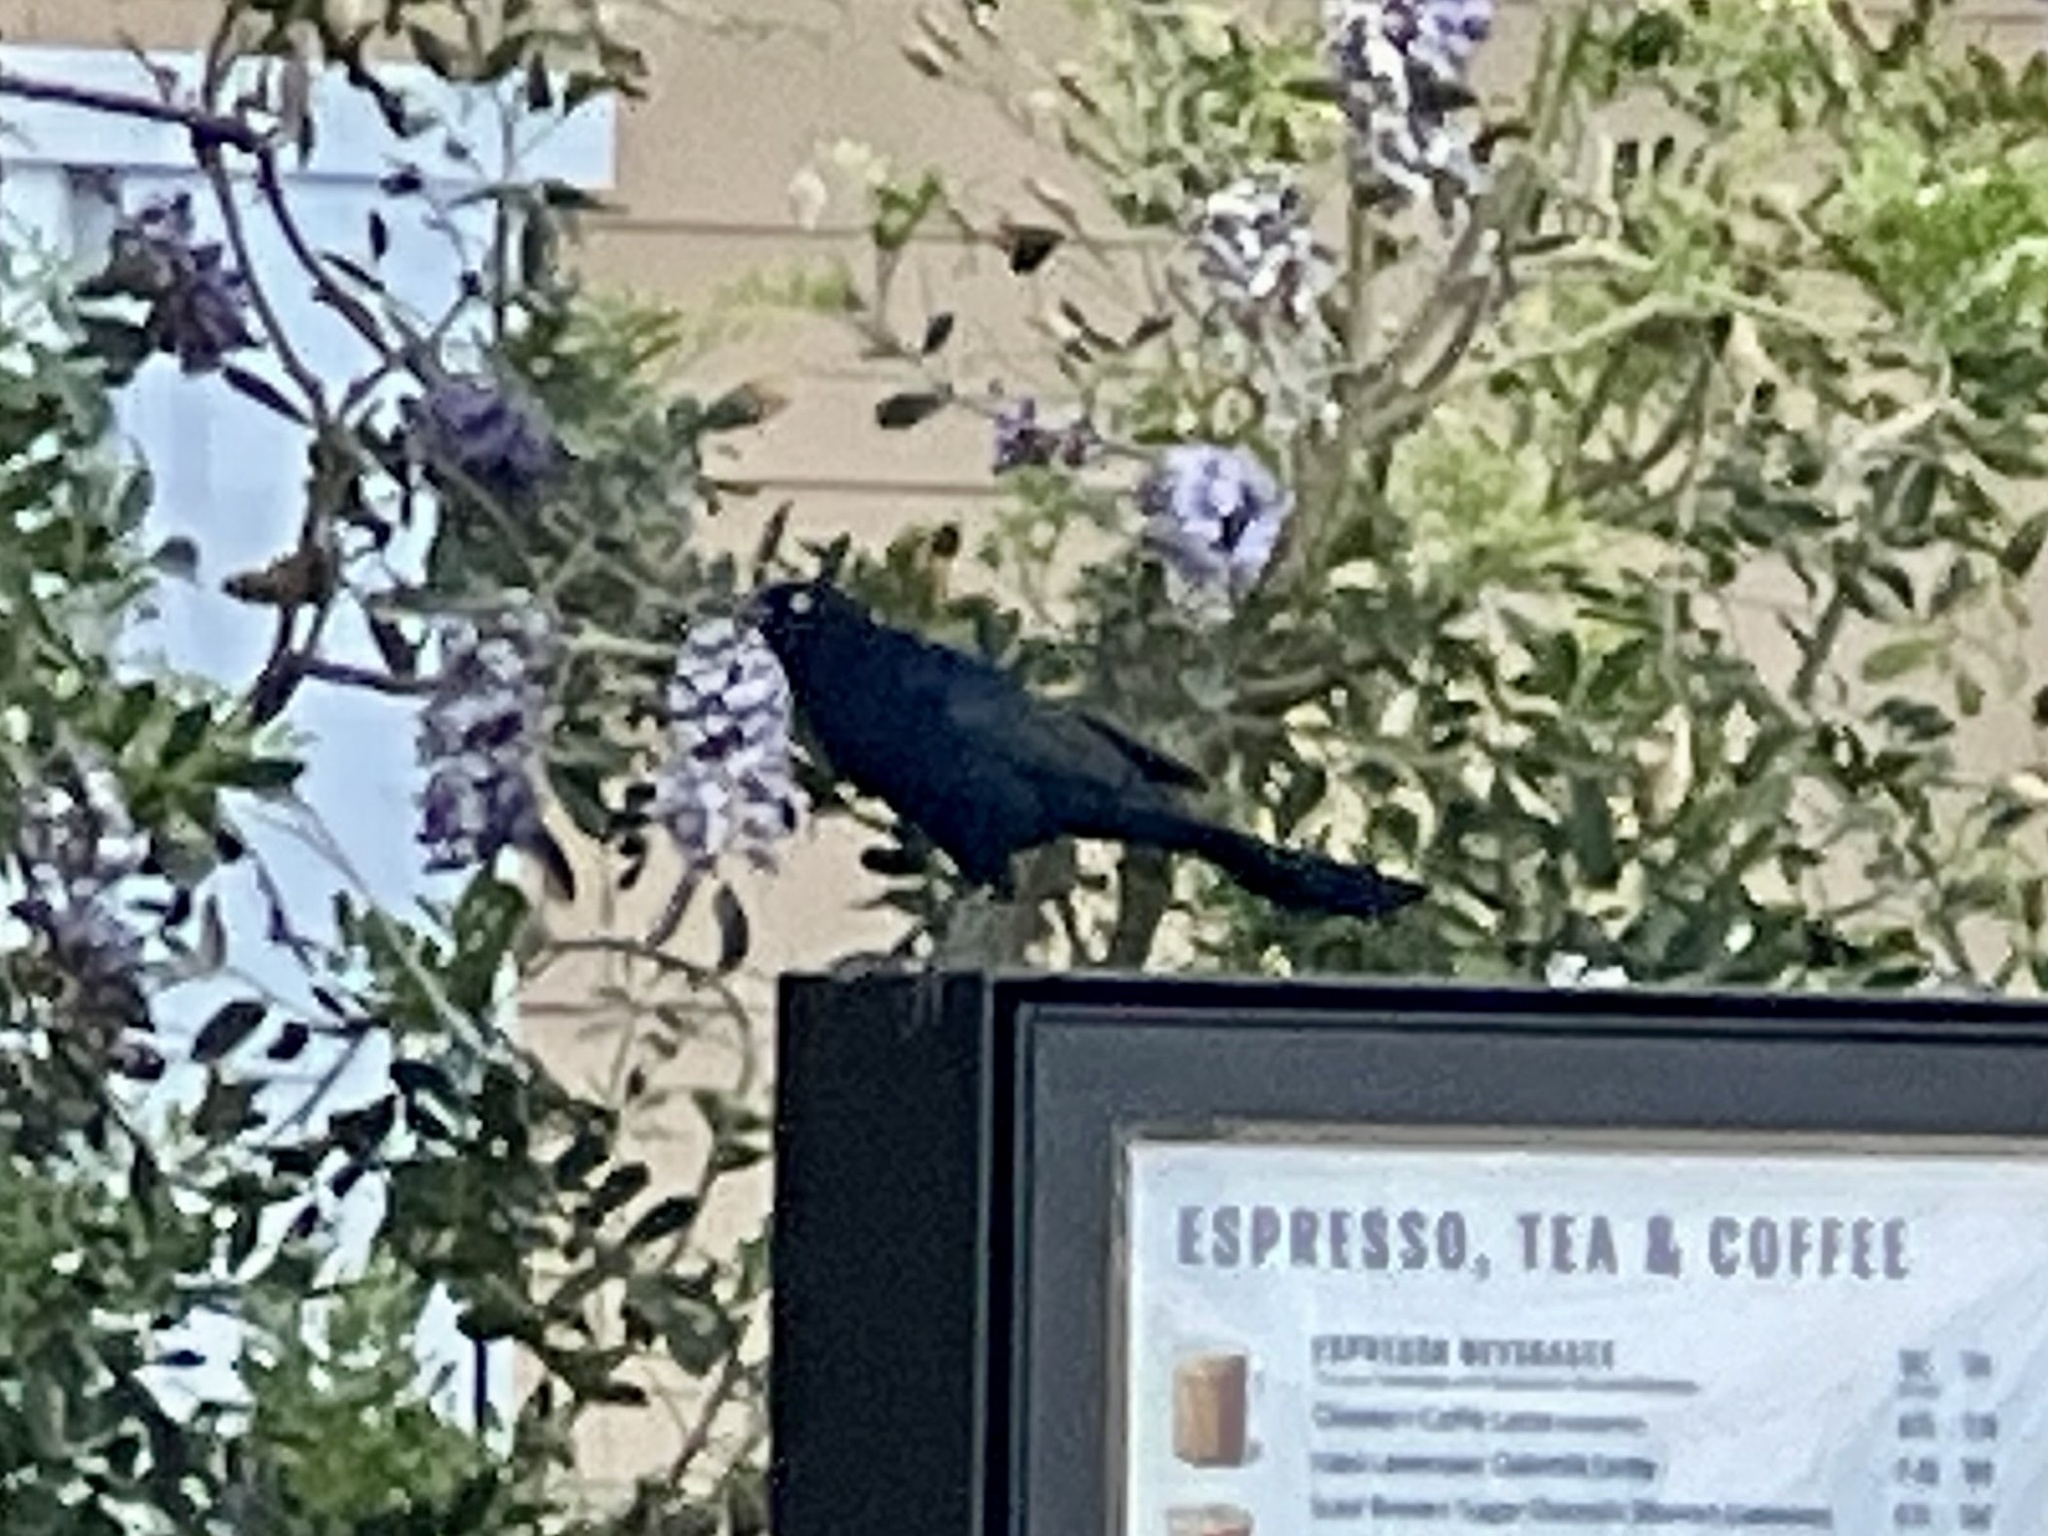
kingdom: Animalia
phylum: Chordata
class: Aves
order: Passeriformes
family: Icteridae
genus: Quiscalus
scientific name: Quiscalus mexicanus
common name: Great-tailed grackle
